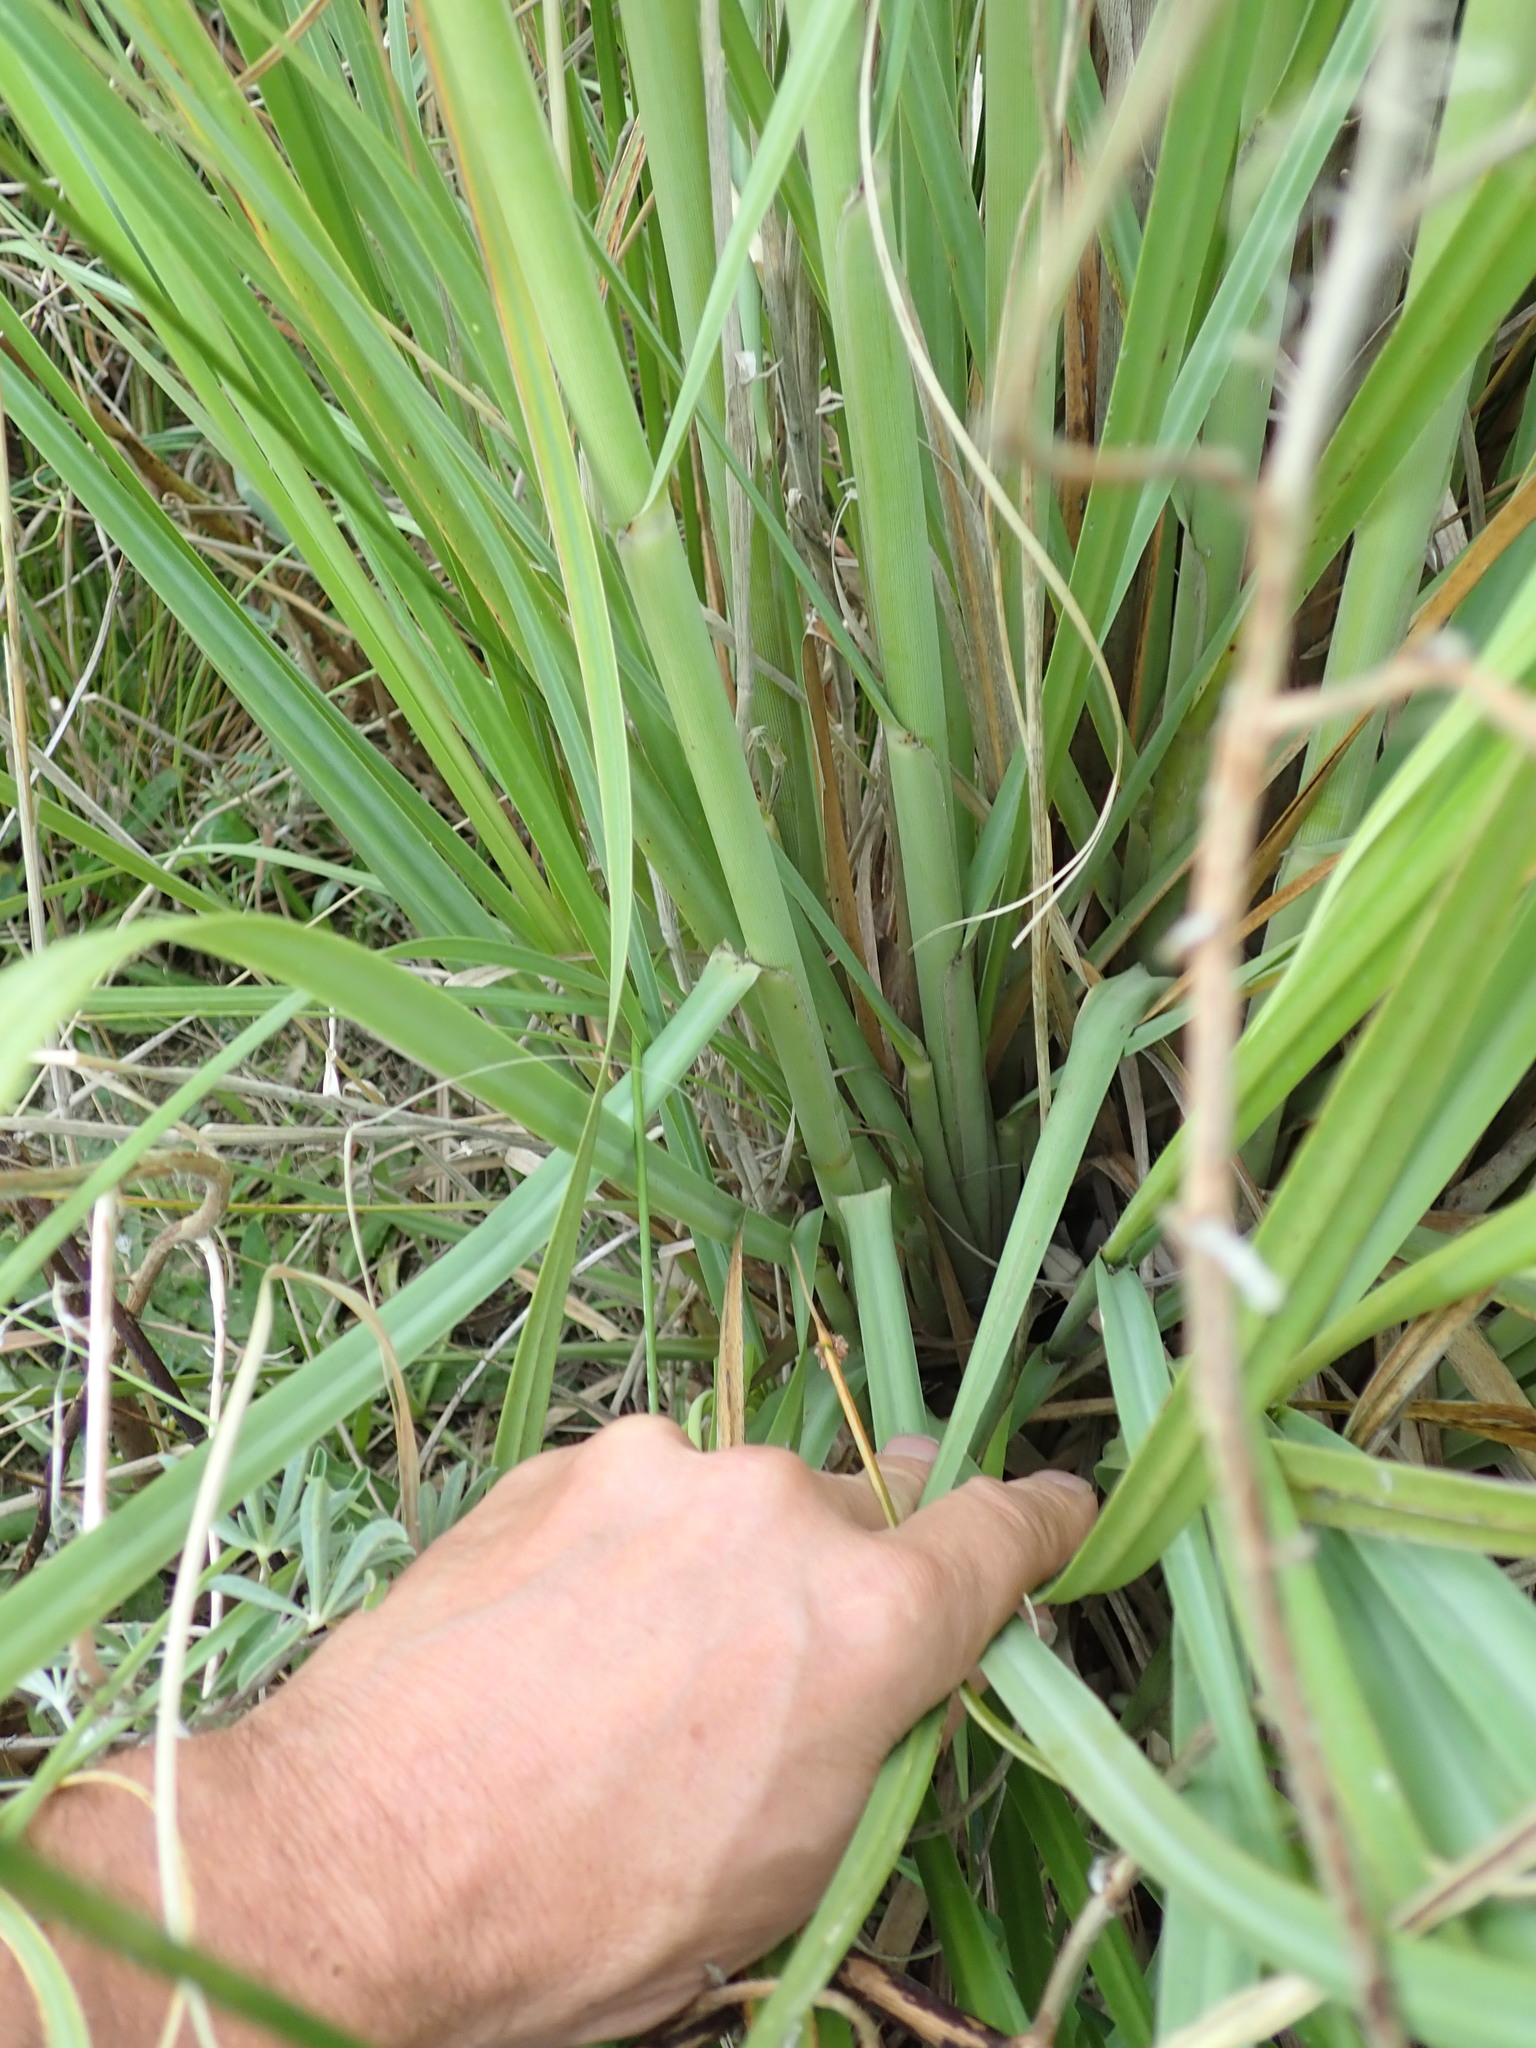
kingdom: Plantae
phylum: Tracheophyta
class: Liliopsida
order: Poales
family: Poaceae
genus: Cortaderia
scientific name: Cortaderia selloana
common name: Uruguayan pampas grass
